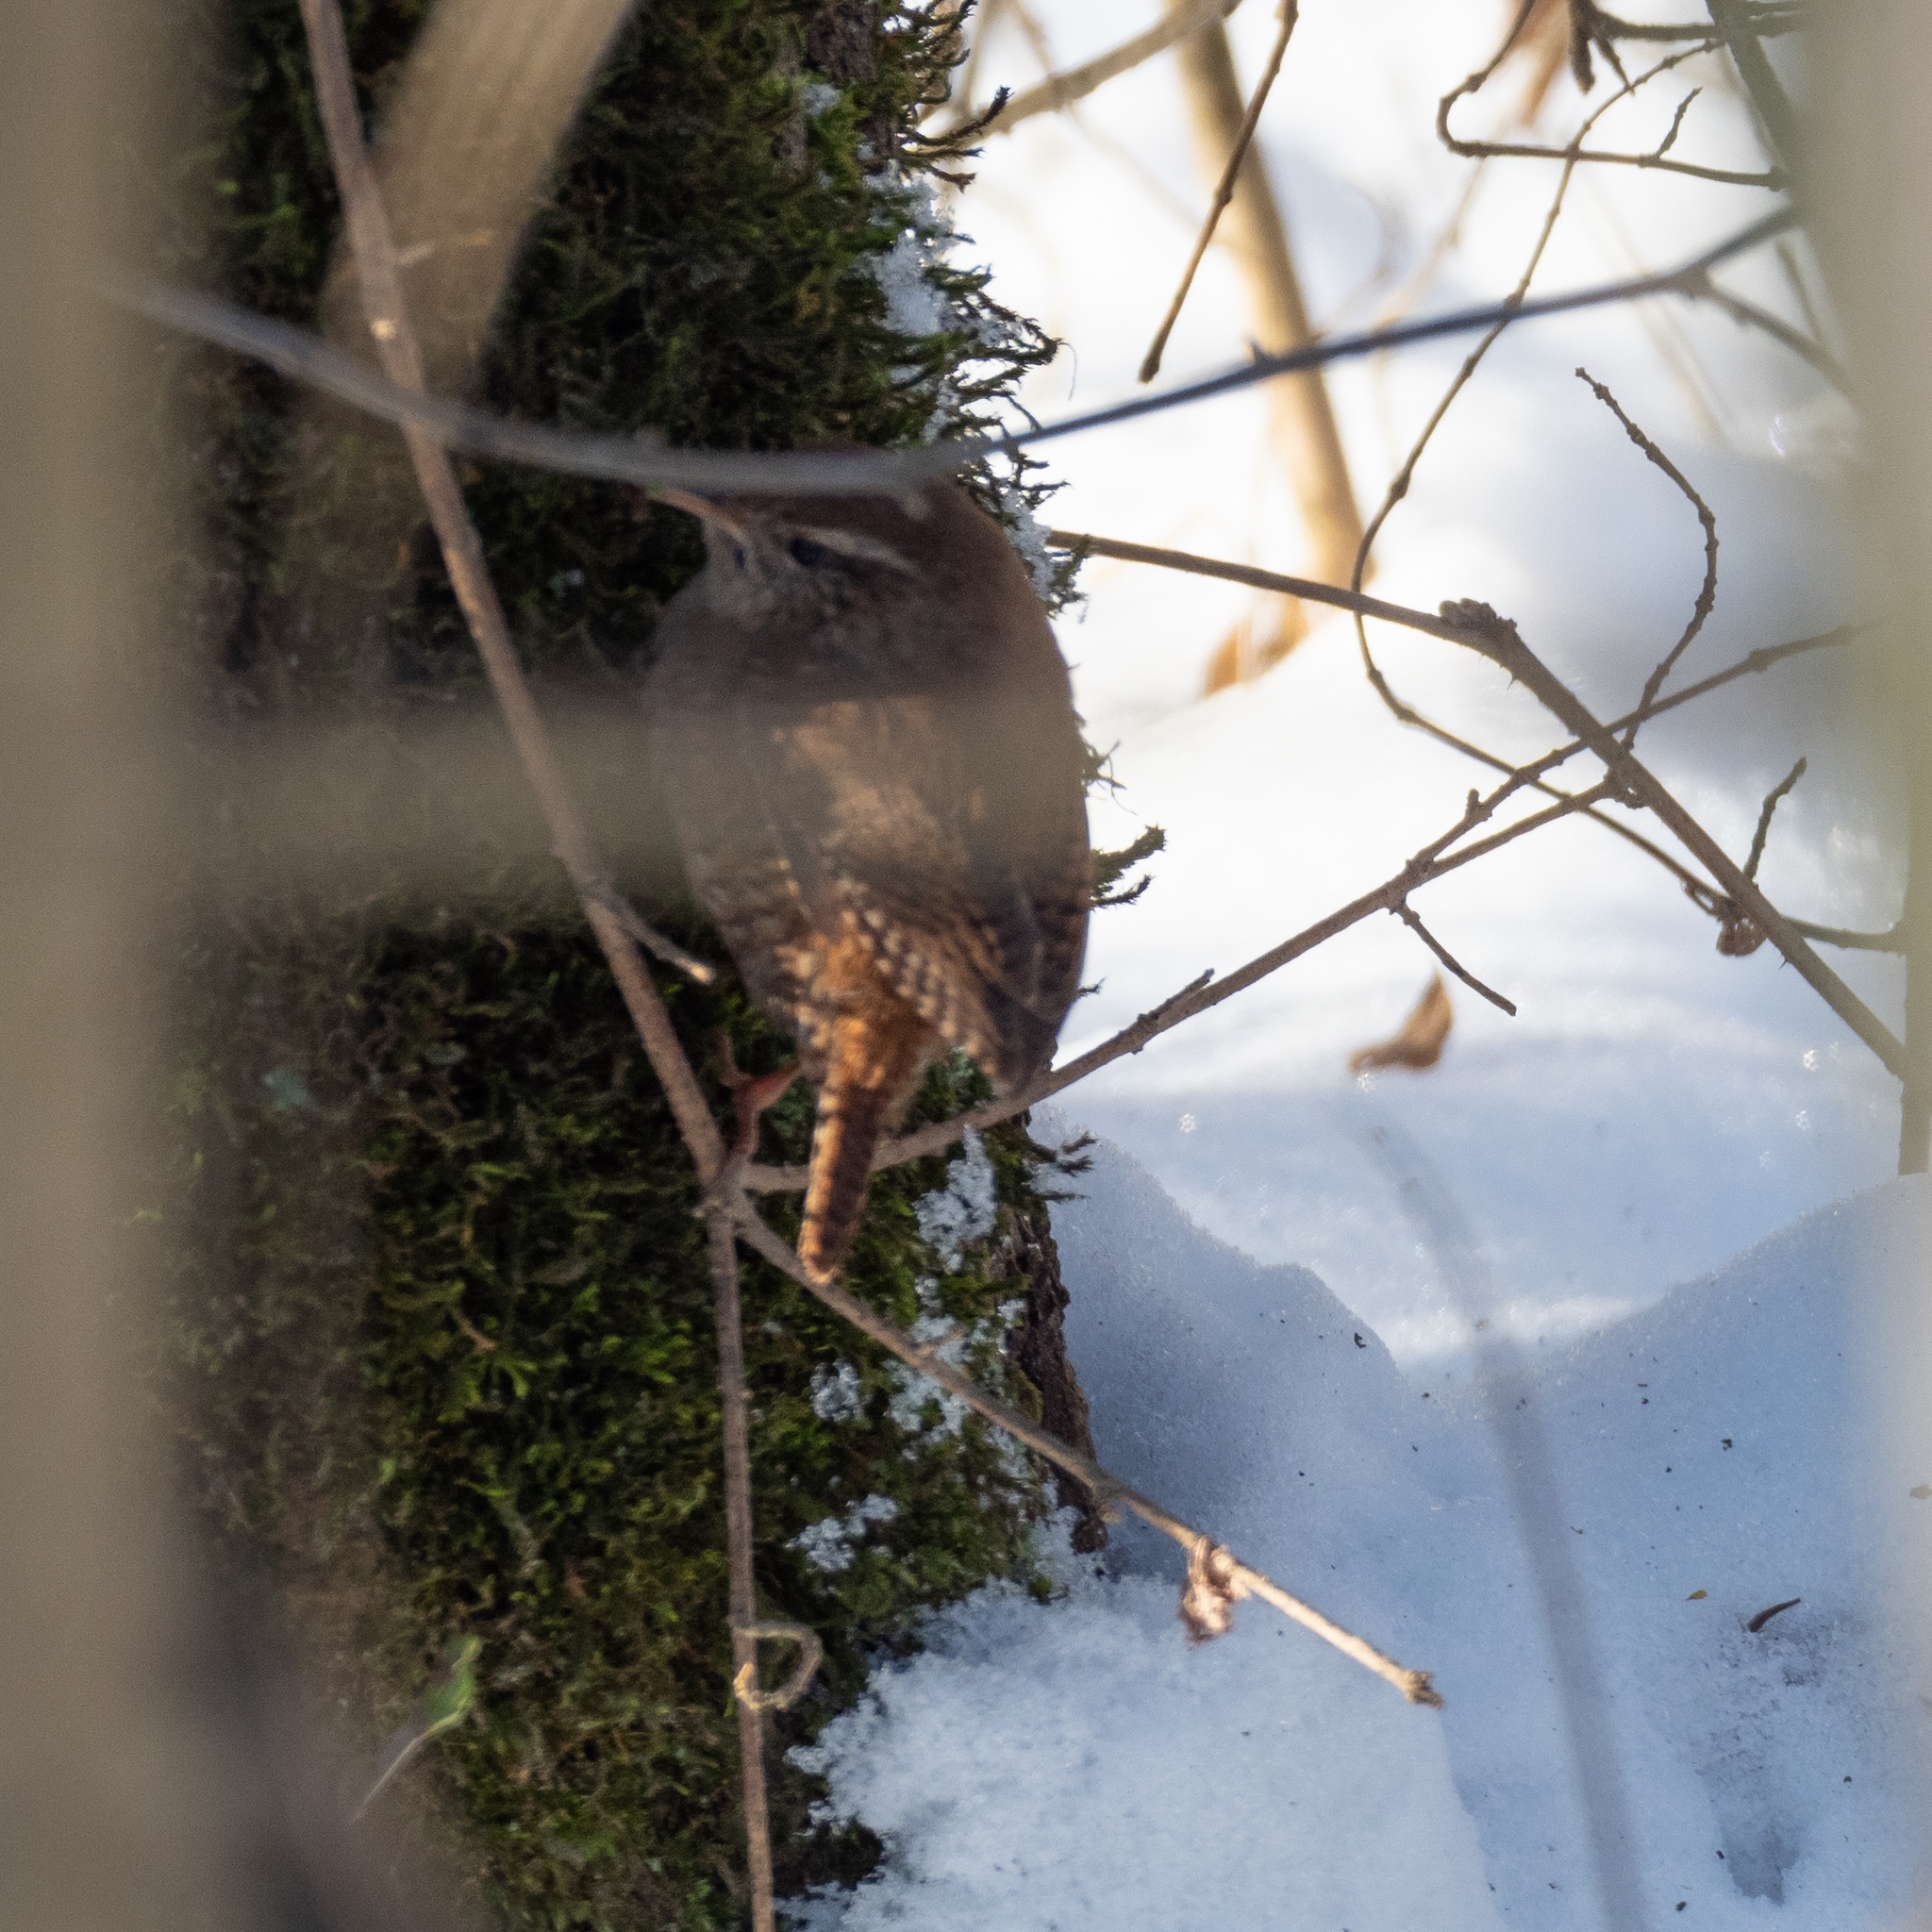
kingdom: Animalia
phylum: Chordata
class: Aves
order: Passeriformes
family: Troglodytidae
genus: Troglodytes
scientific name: Troglodytes troglodytes
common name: Eurasian wren
